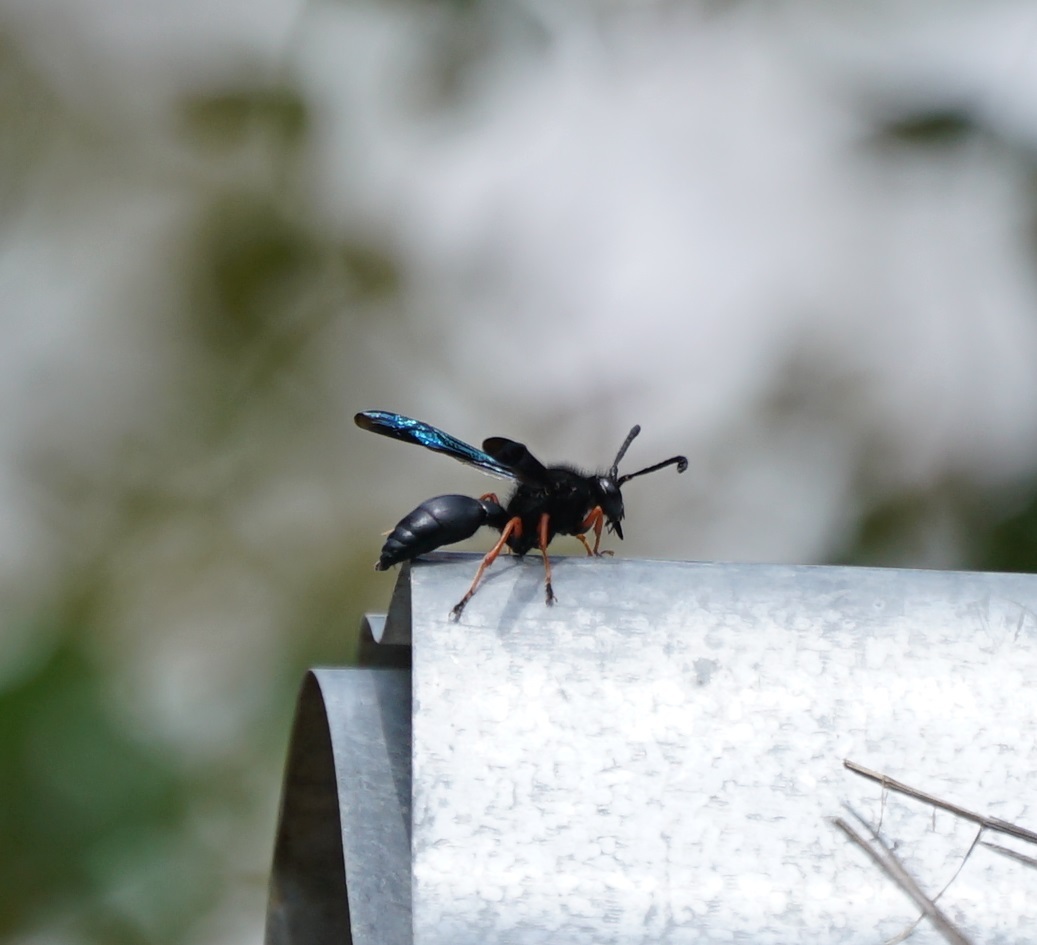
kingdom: Animalia
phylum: Arthropoda
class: Insecta
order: Hymenoptera
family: Vespidae
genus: Hypodynerus
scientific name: Hypodynerus andeus
